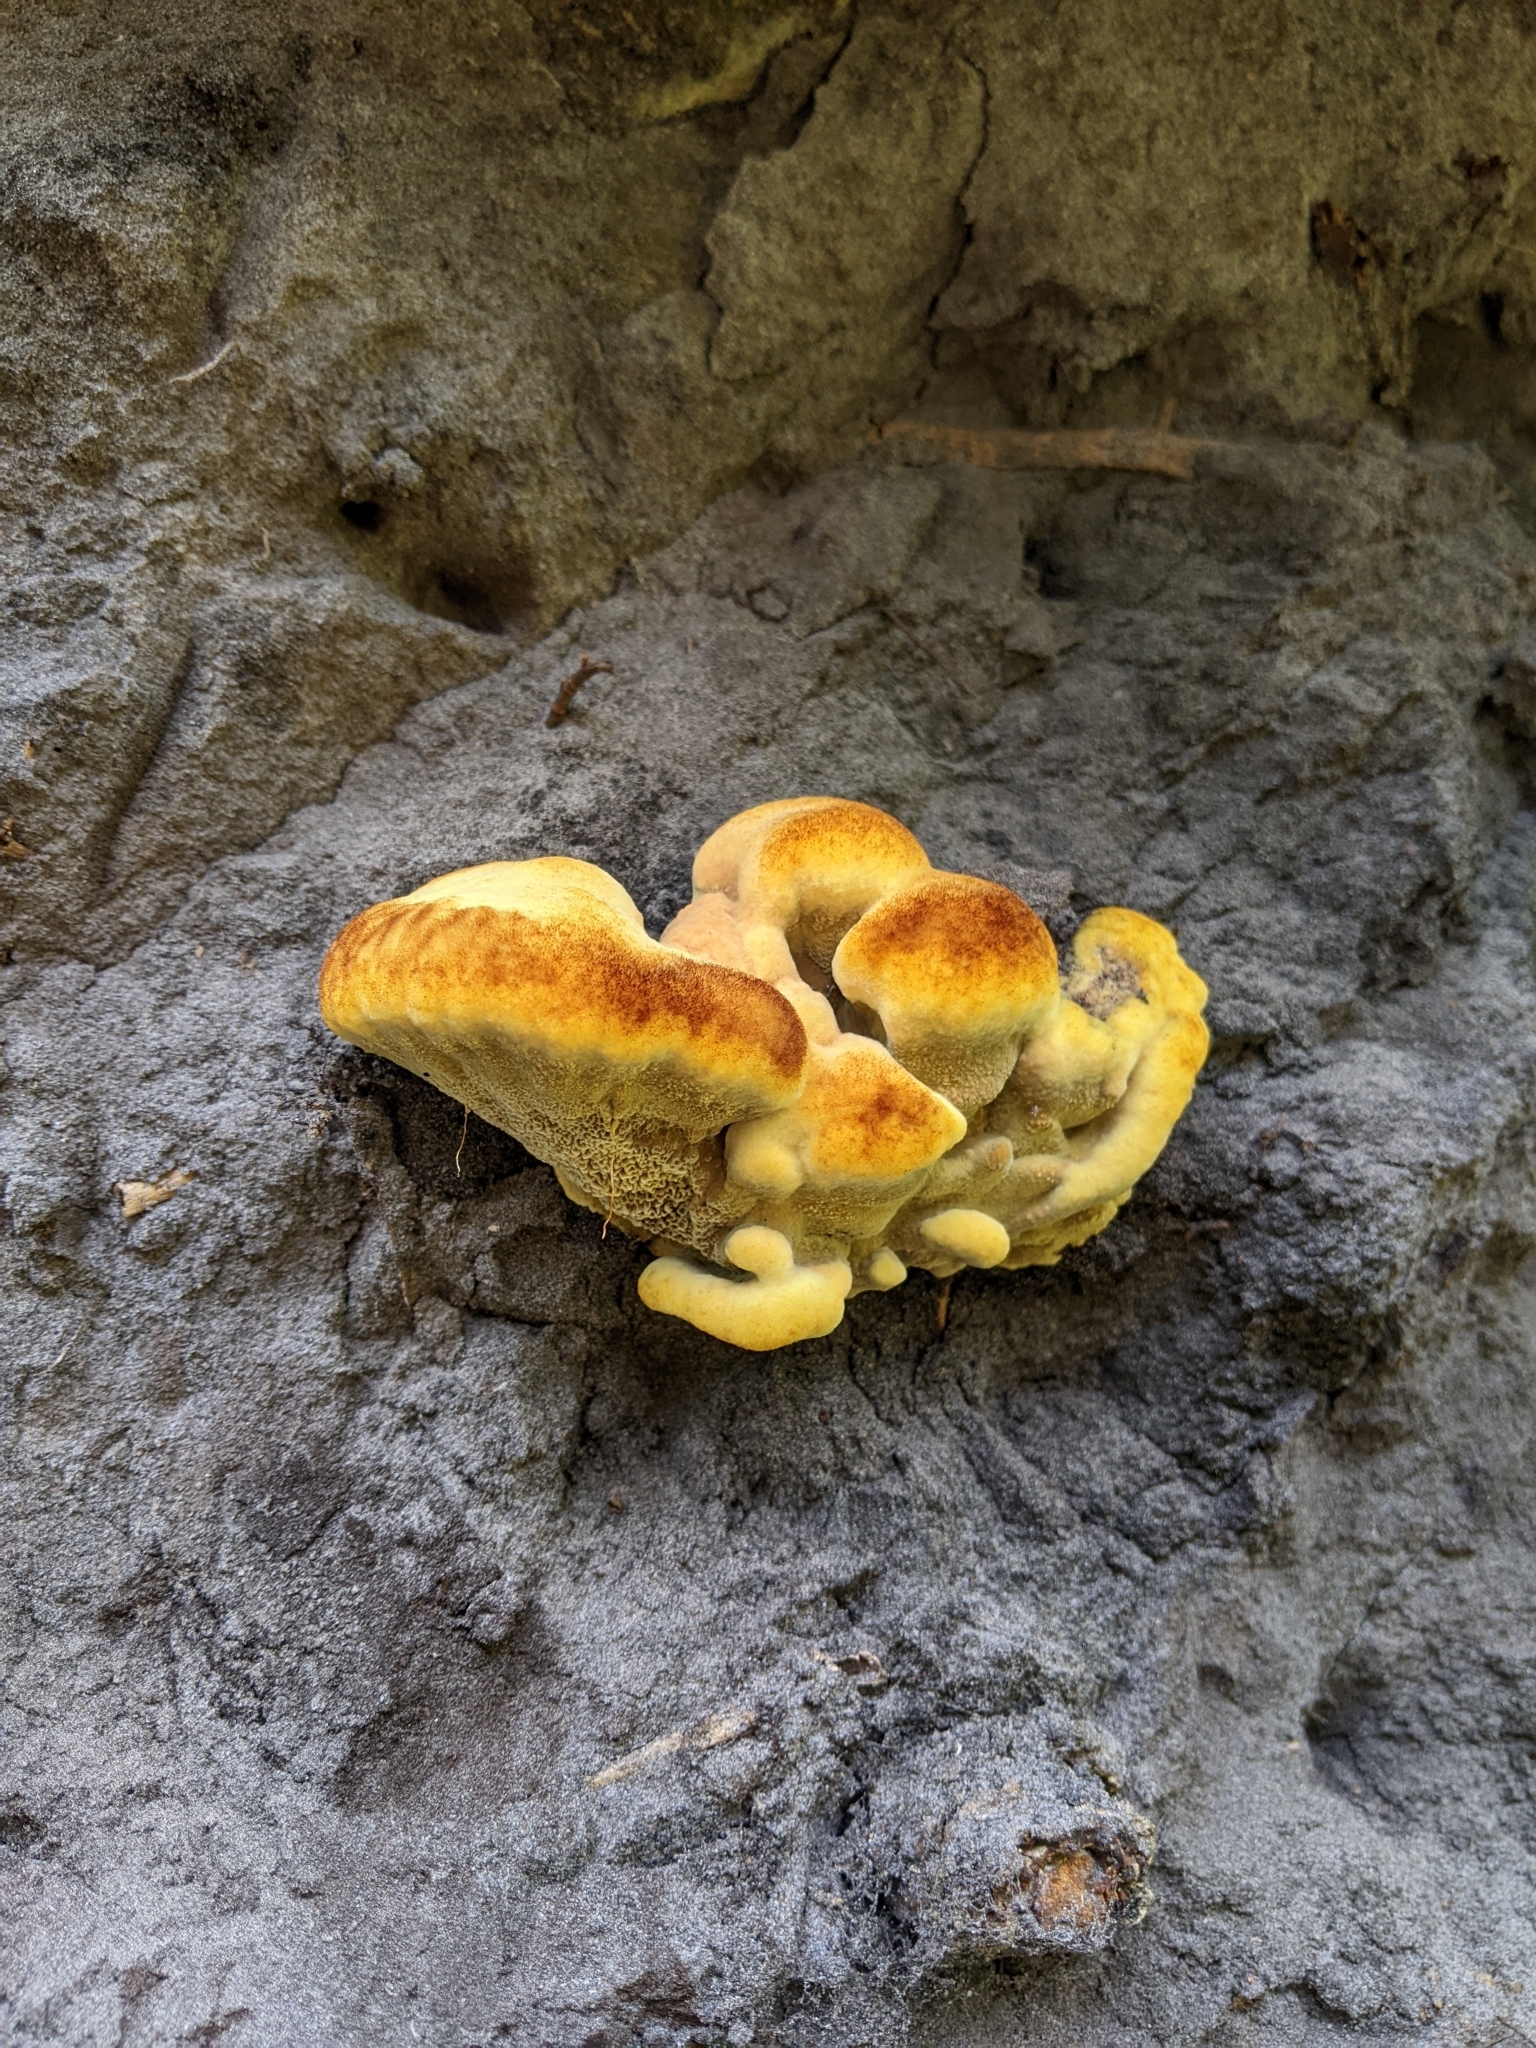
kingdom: Fungi
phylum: Basidiomycota
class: Agaricomycetes
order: Polyporales
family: Laetiporaceae
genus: Phaeolus
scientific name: Phaeolus schweinitzii
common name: Dyer's mazegill
